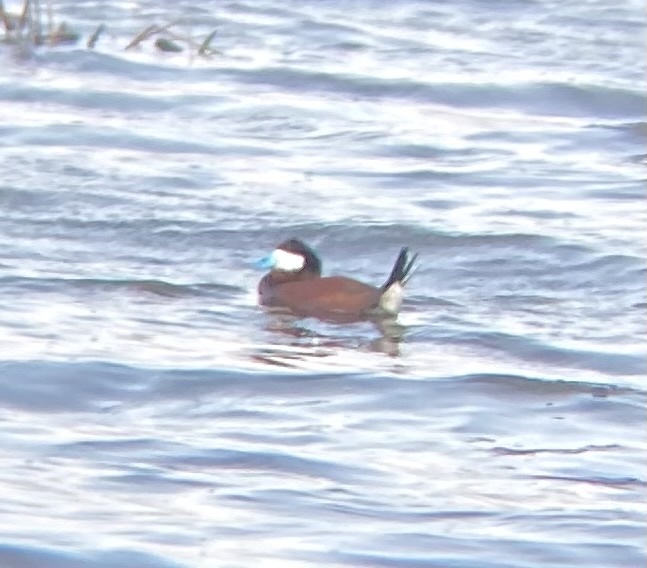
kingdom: Animalia
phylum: Chordata
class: Aves
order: Anseriformes
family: Anatidae
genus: Oxyura
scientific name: Oxyura jamaicensis
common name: Ruddy duck
